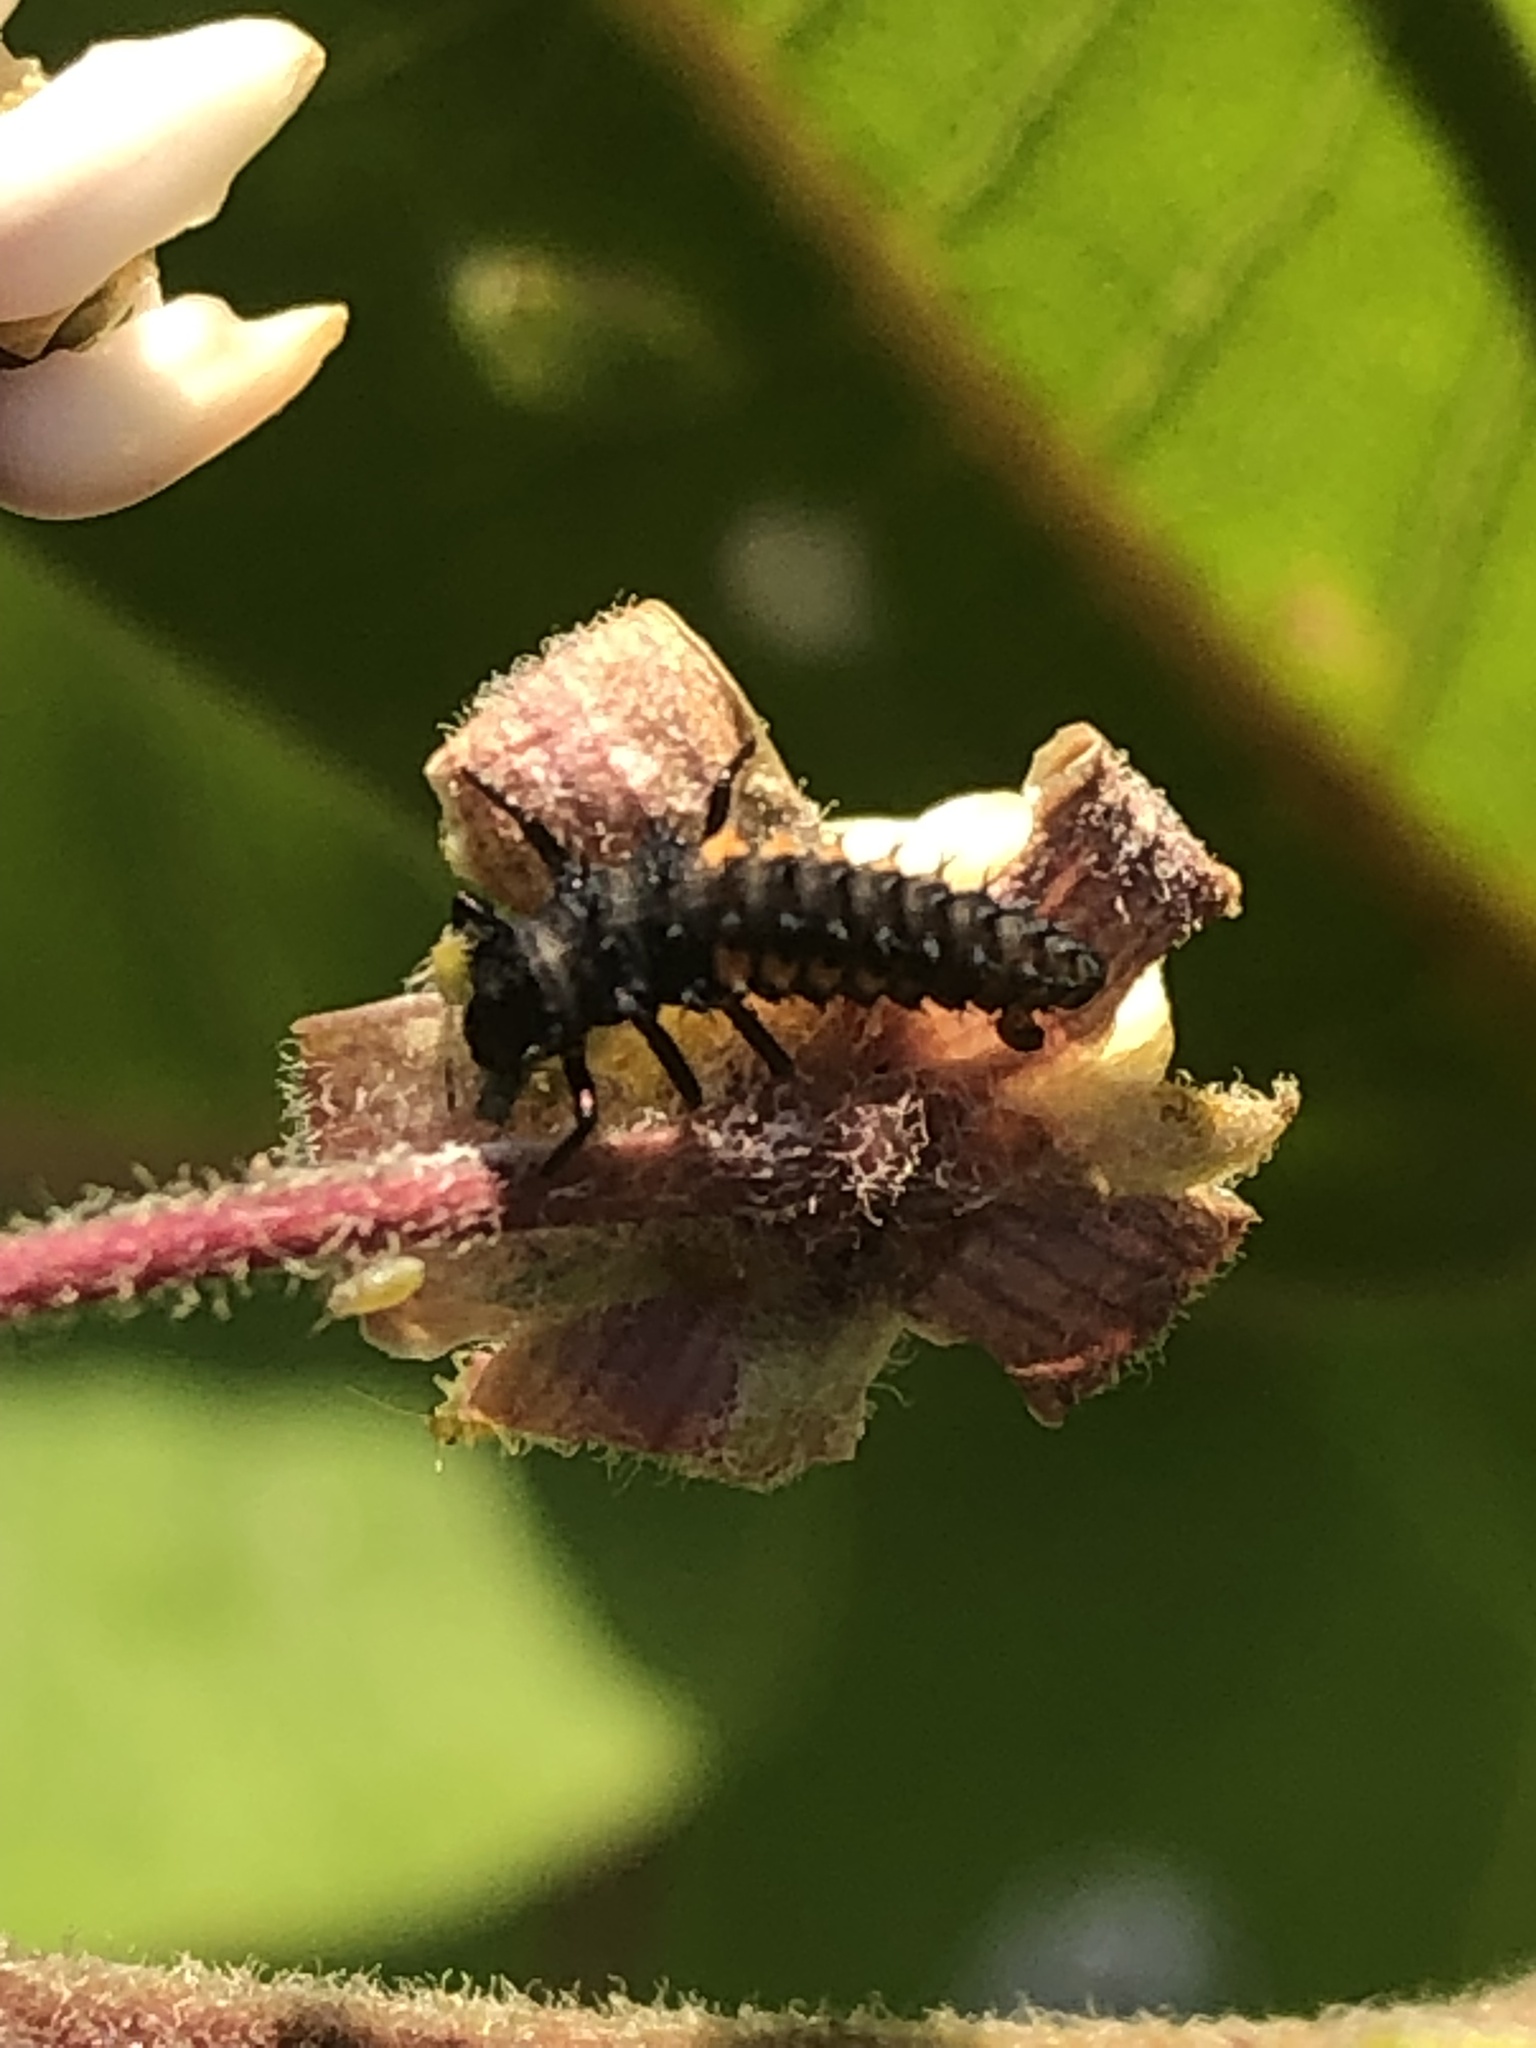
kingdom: Animalia
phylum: Arthropoda
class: Insecta
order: Coleoptera
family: Coccinellidae
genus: Harmonia
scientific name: Harmonia axyridis
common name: Harlequin ladybird
